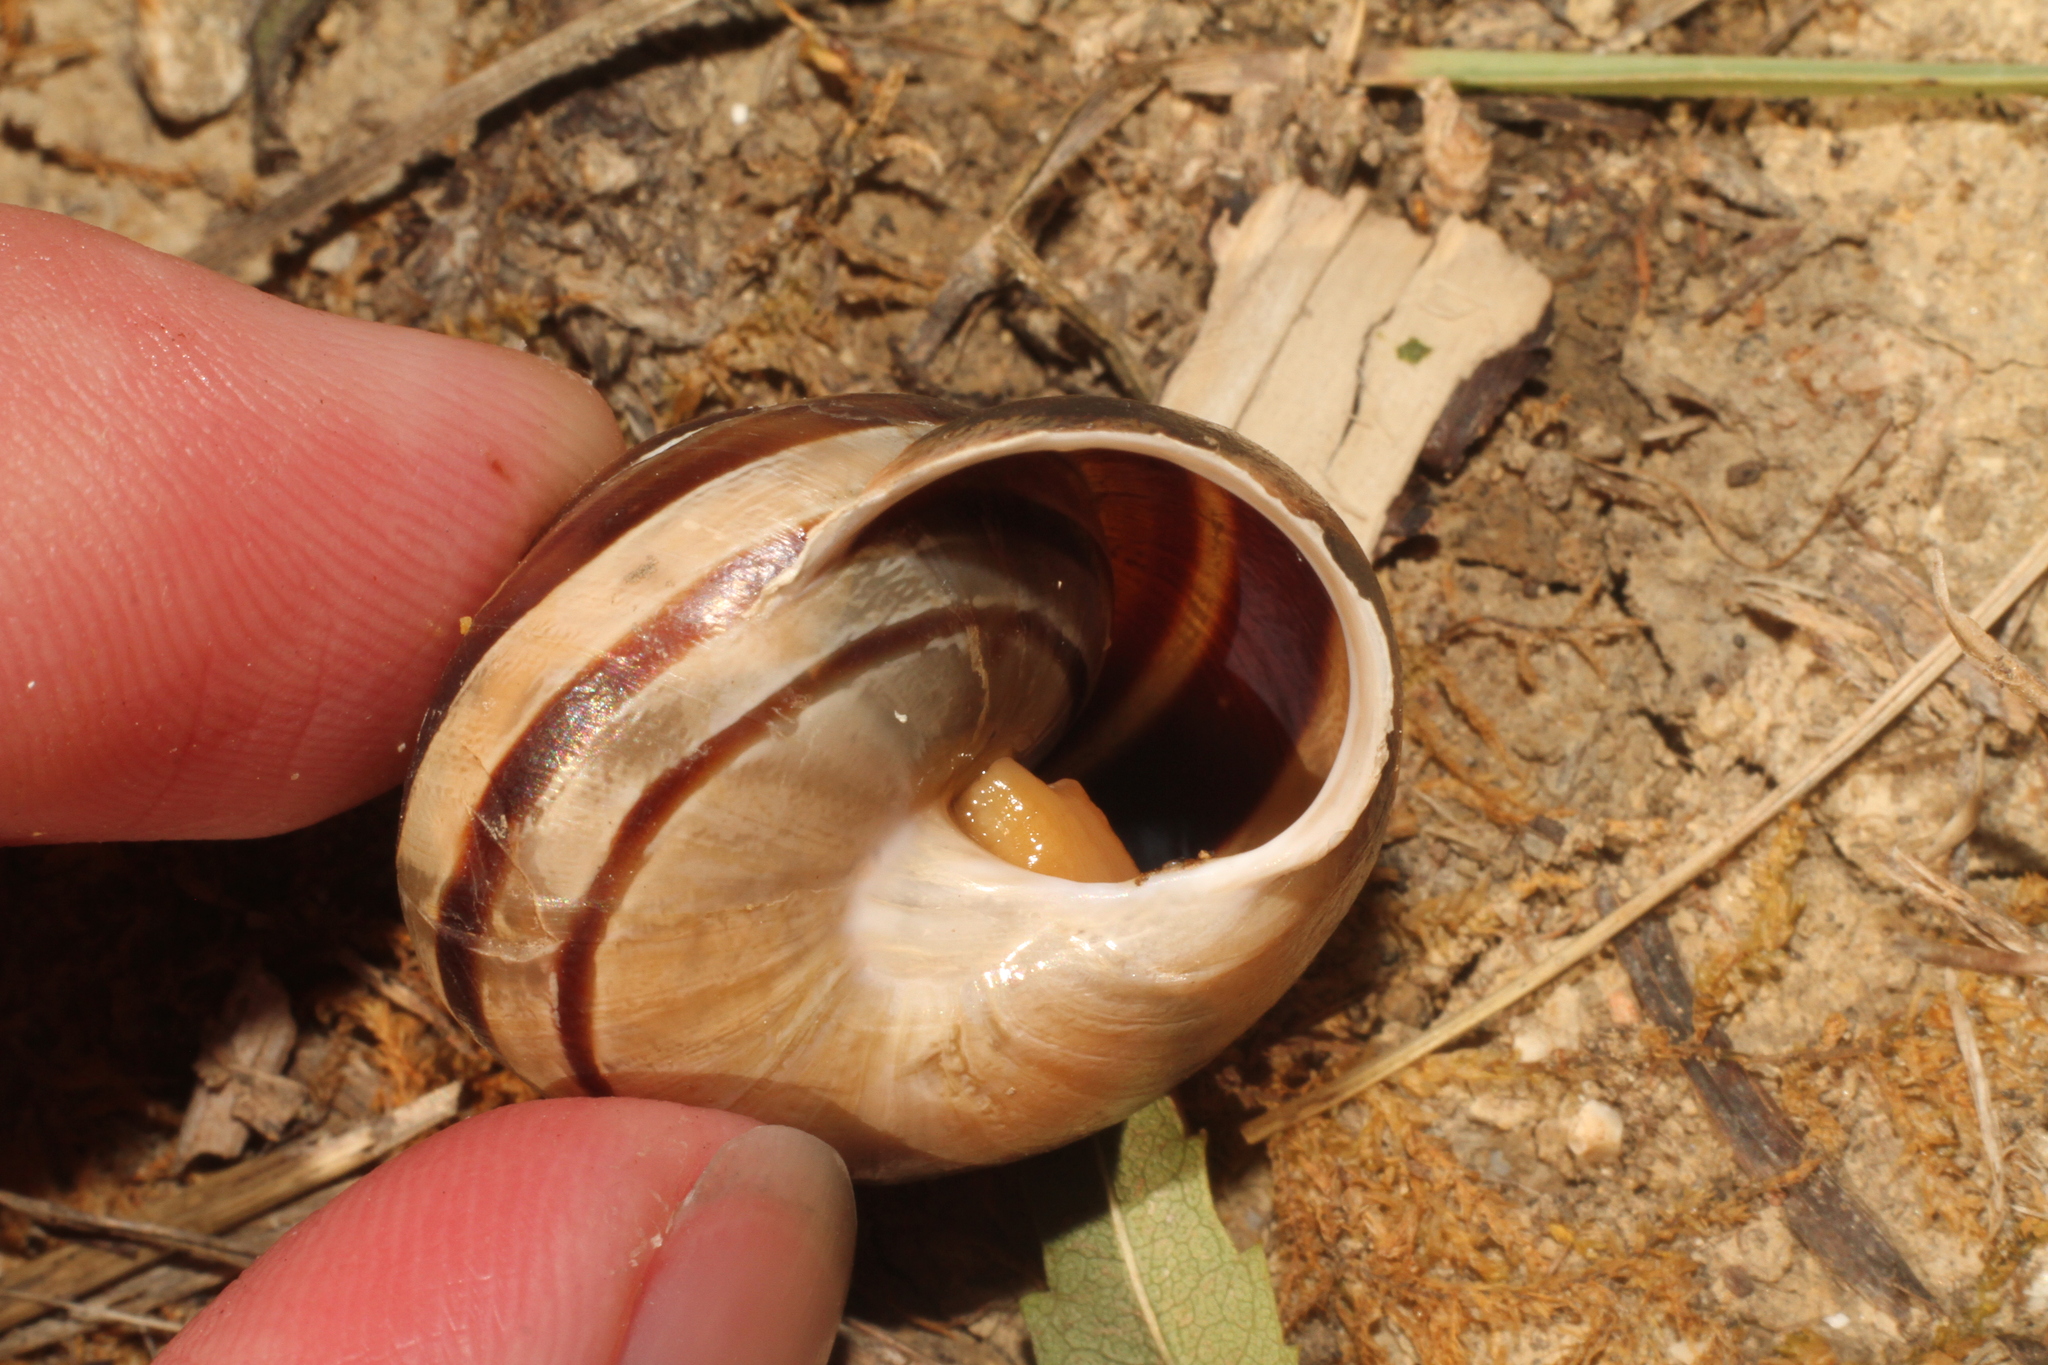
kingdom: Animalia
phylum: Mollusca
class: Gastropoda
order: Stylommatophora
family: Helicidae
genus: Eobania
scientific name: Eobania vermiculata
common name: Chocolateband snail
